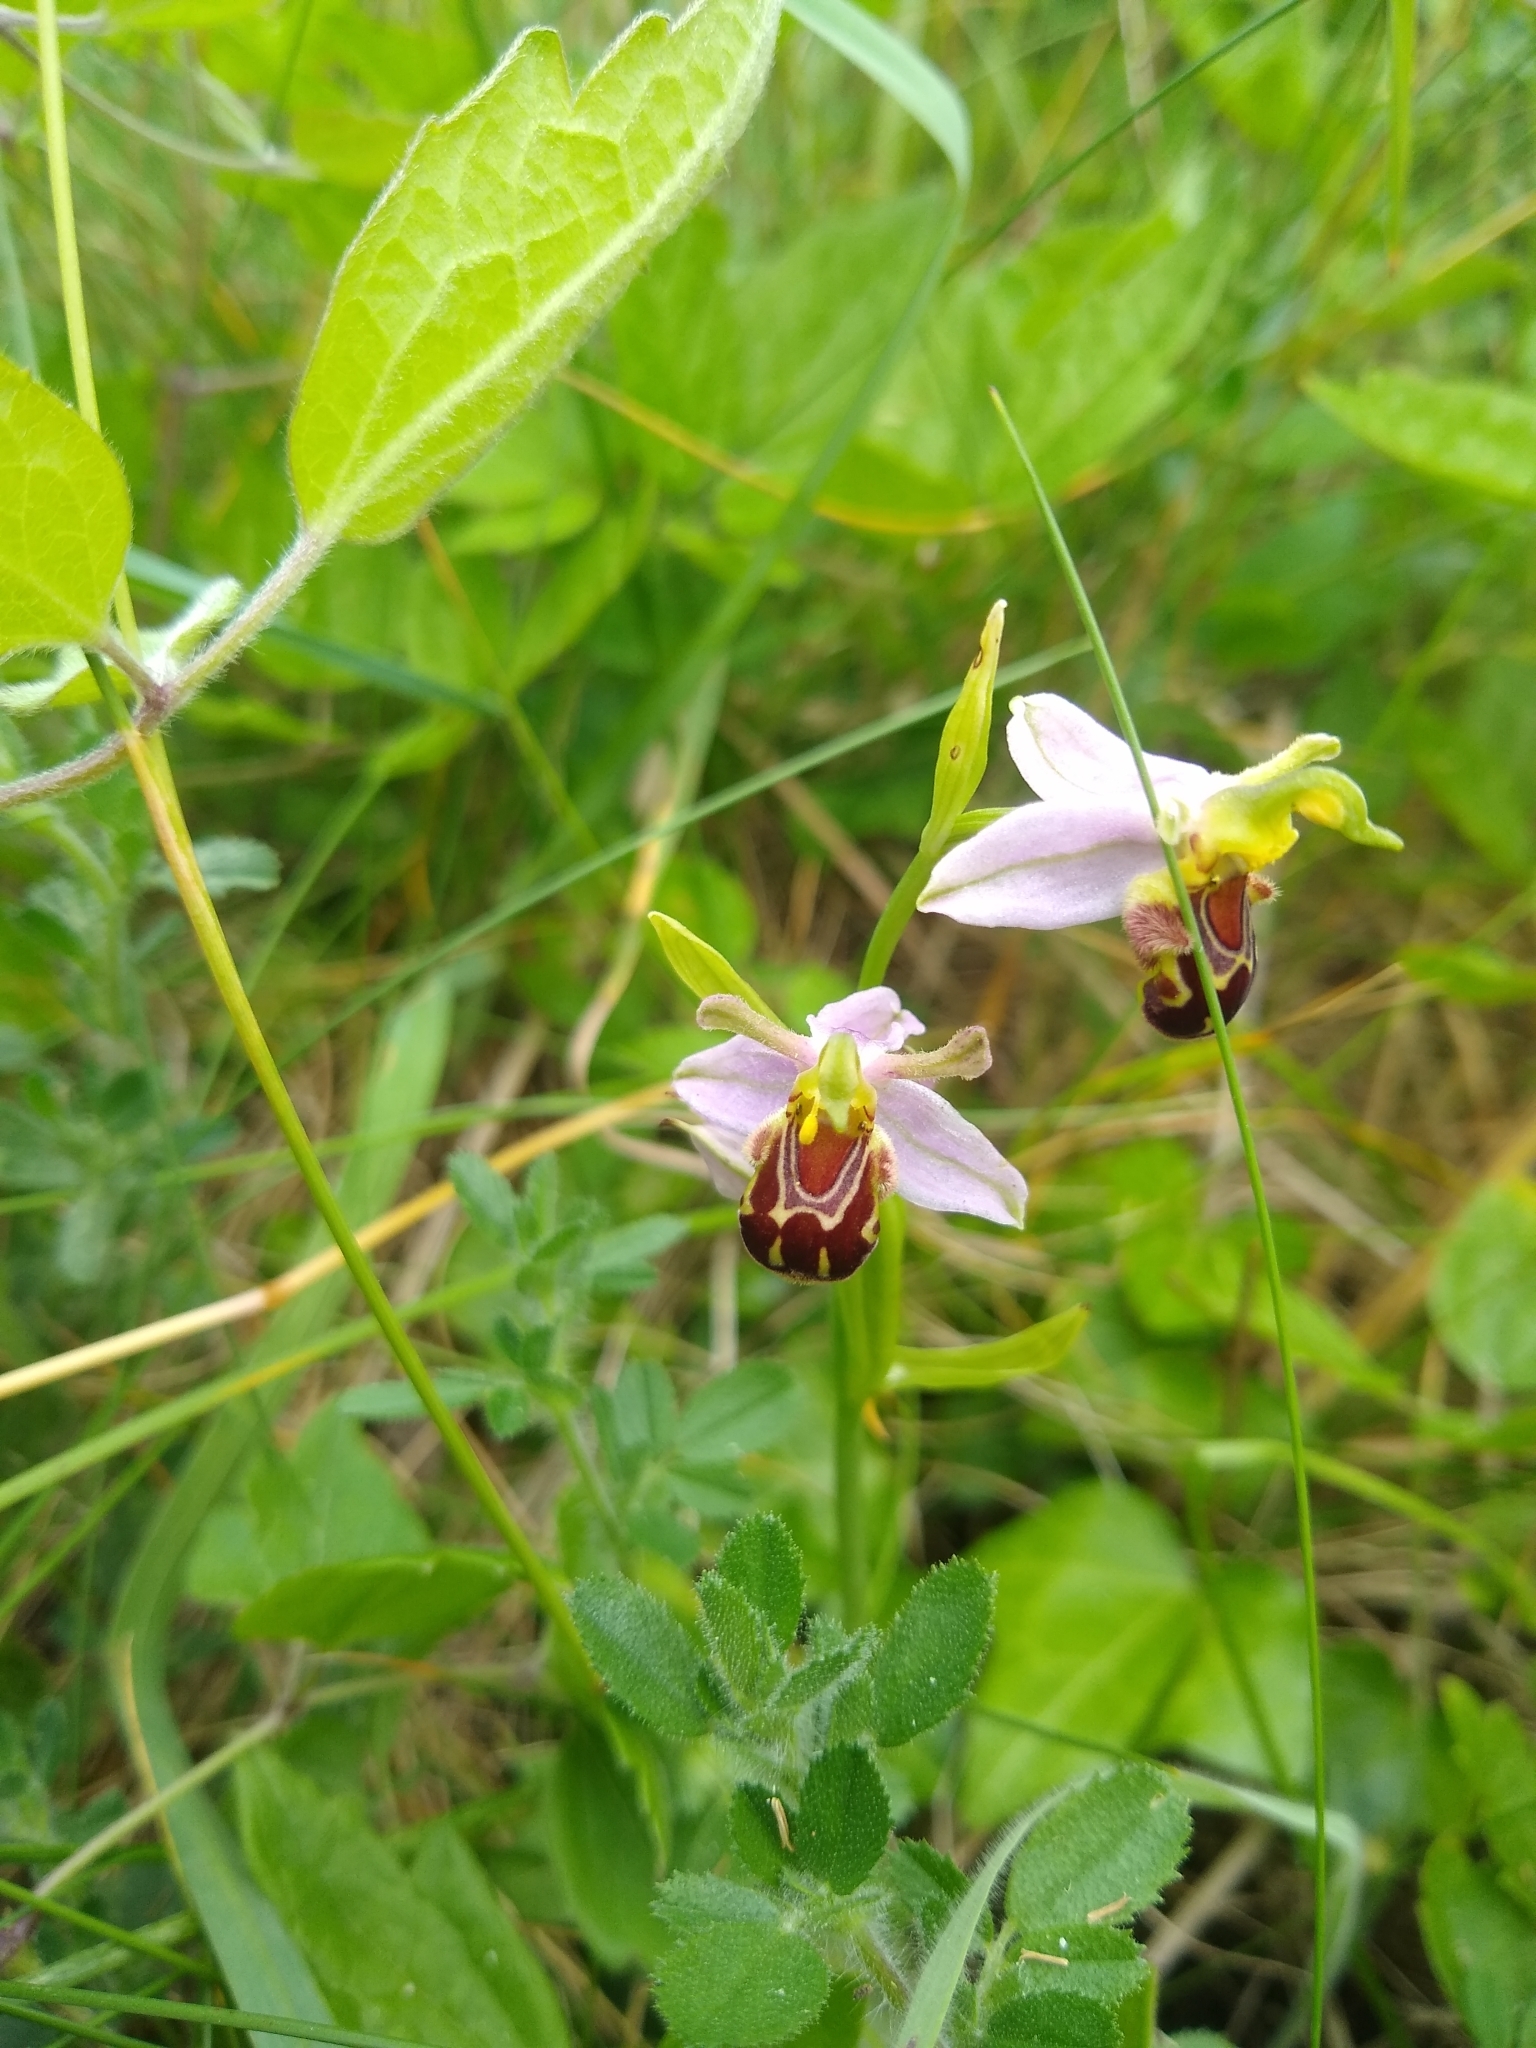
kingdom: Plantae
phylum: Tracheophyta
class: Liliopsida
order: Asparagales
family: Orchidaceae
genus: Ophrys
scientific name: Ophrys apifera
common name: Bee orchid
